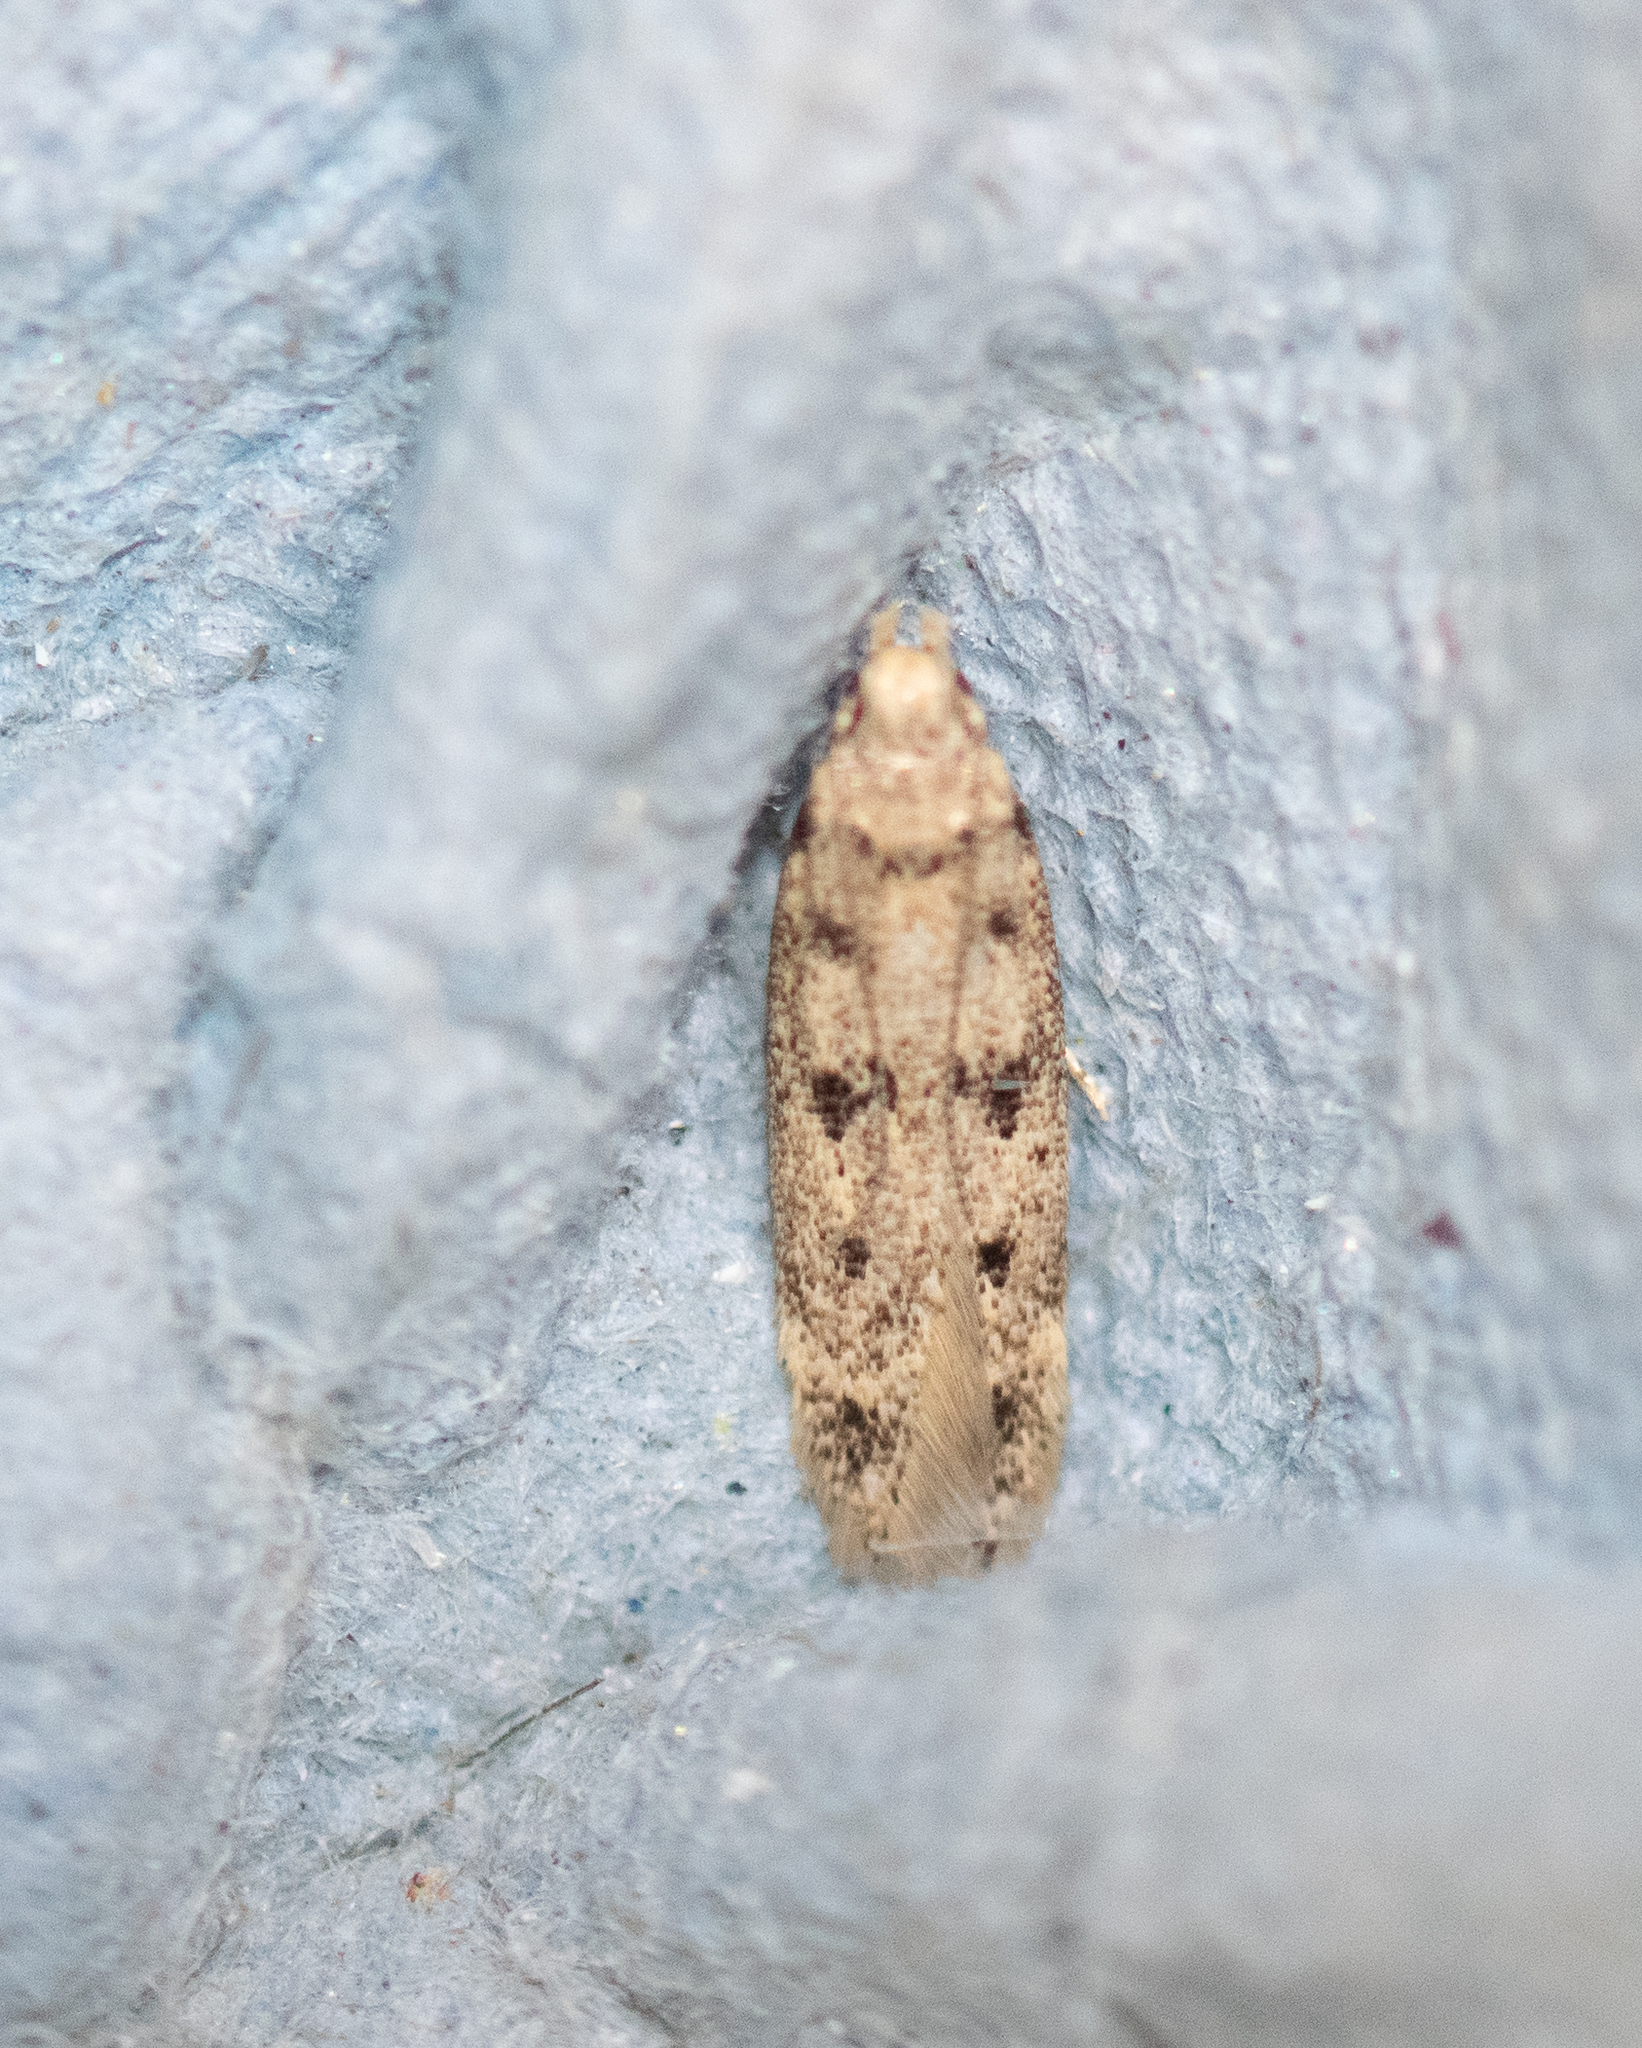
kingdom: Animalia
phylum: Arthropoda
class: Insecta
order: Lepidoptera
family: Gelechiidae
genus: Bryotropha
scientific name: Bryotropha domestica
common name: House groundling
